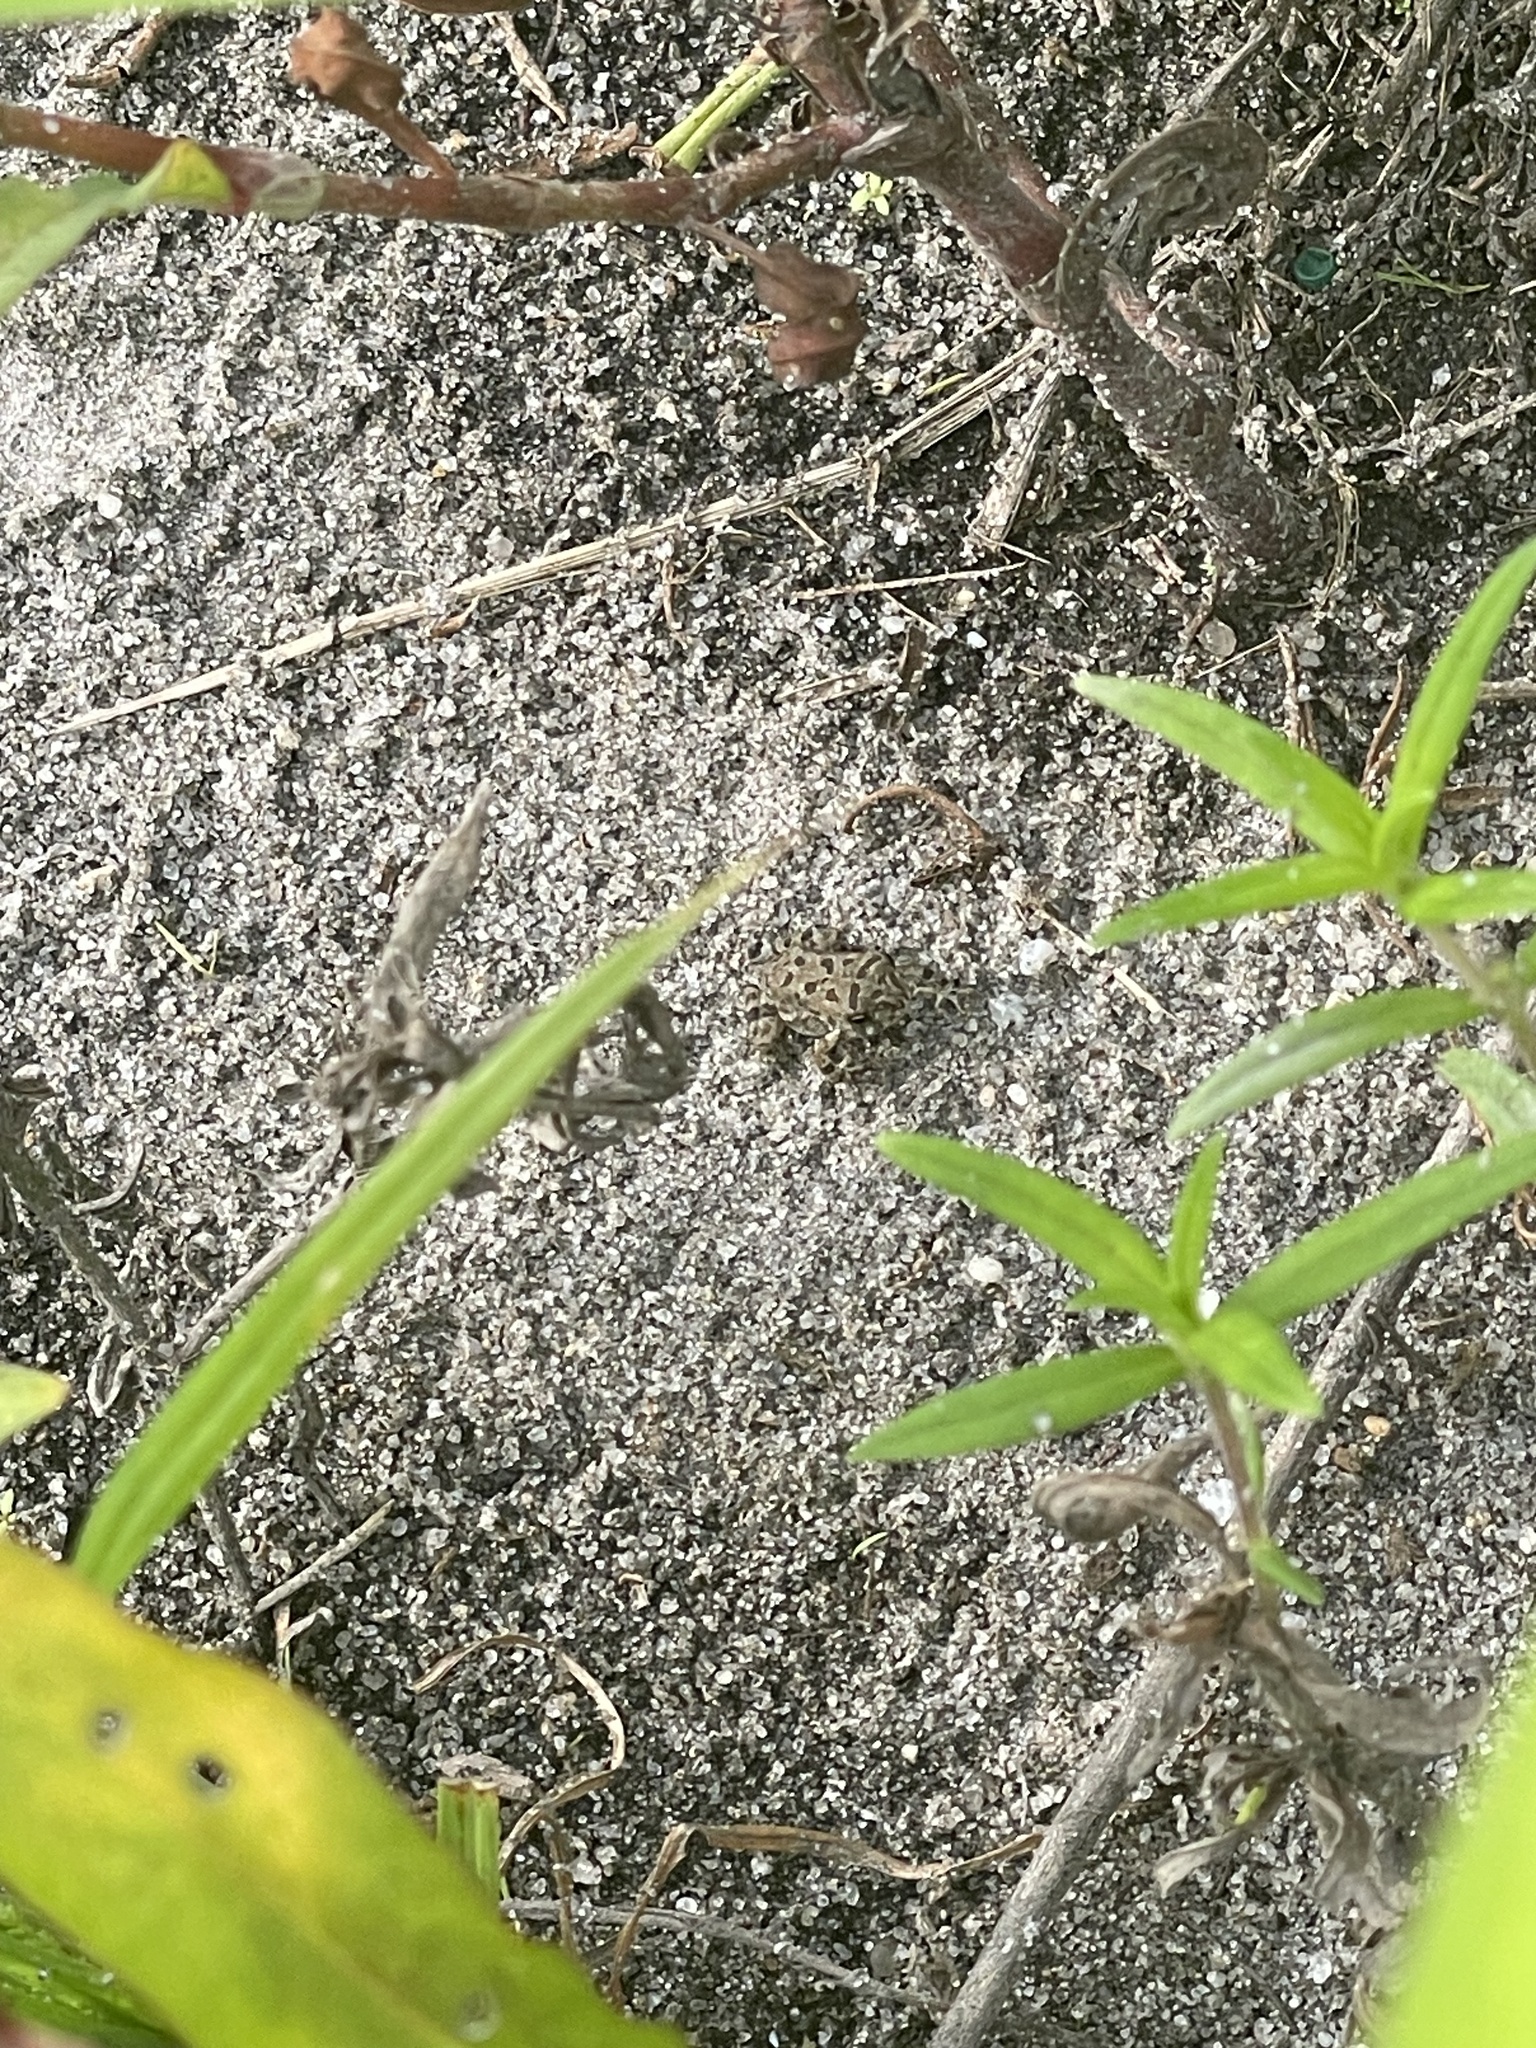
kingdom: Animalia
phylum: Chordata
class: Amphibia
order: Anura
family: Bufonidae
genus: Anaxyrus
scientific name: Anaxyrus fowleri
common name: Fowler's toad
